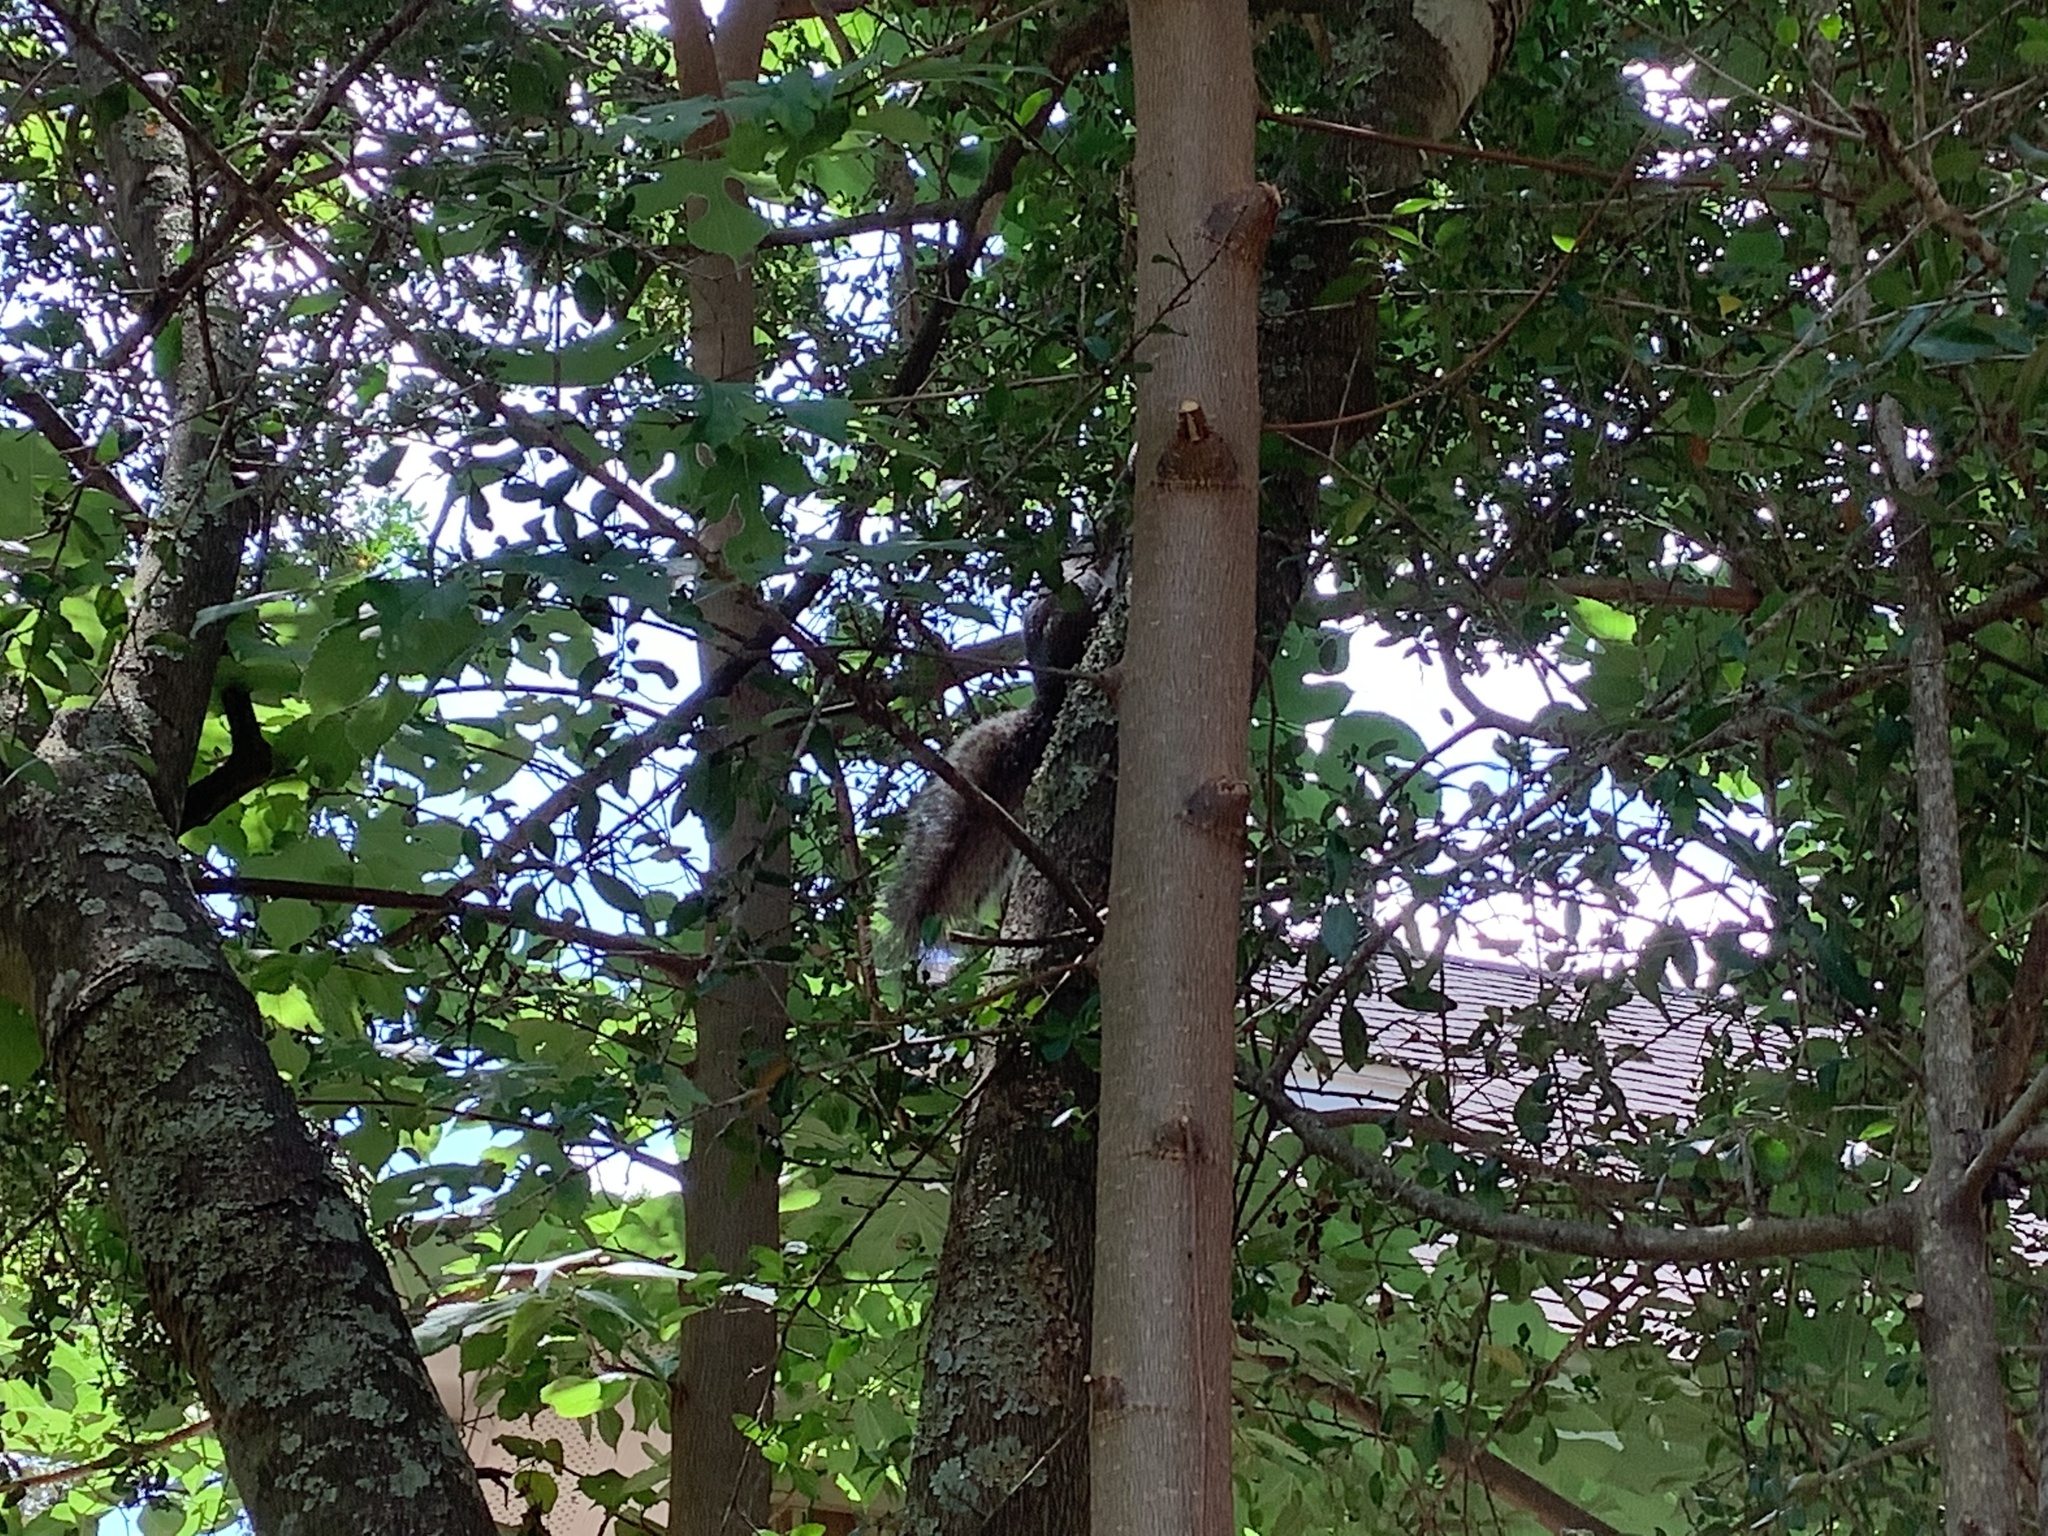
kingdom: Animalia
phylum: Chordata
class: Mammalia
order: Rodentia
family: Sciuridae
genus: Sciurus
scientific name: Sciurus carolinensis
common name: Eastern gray squirrel
